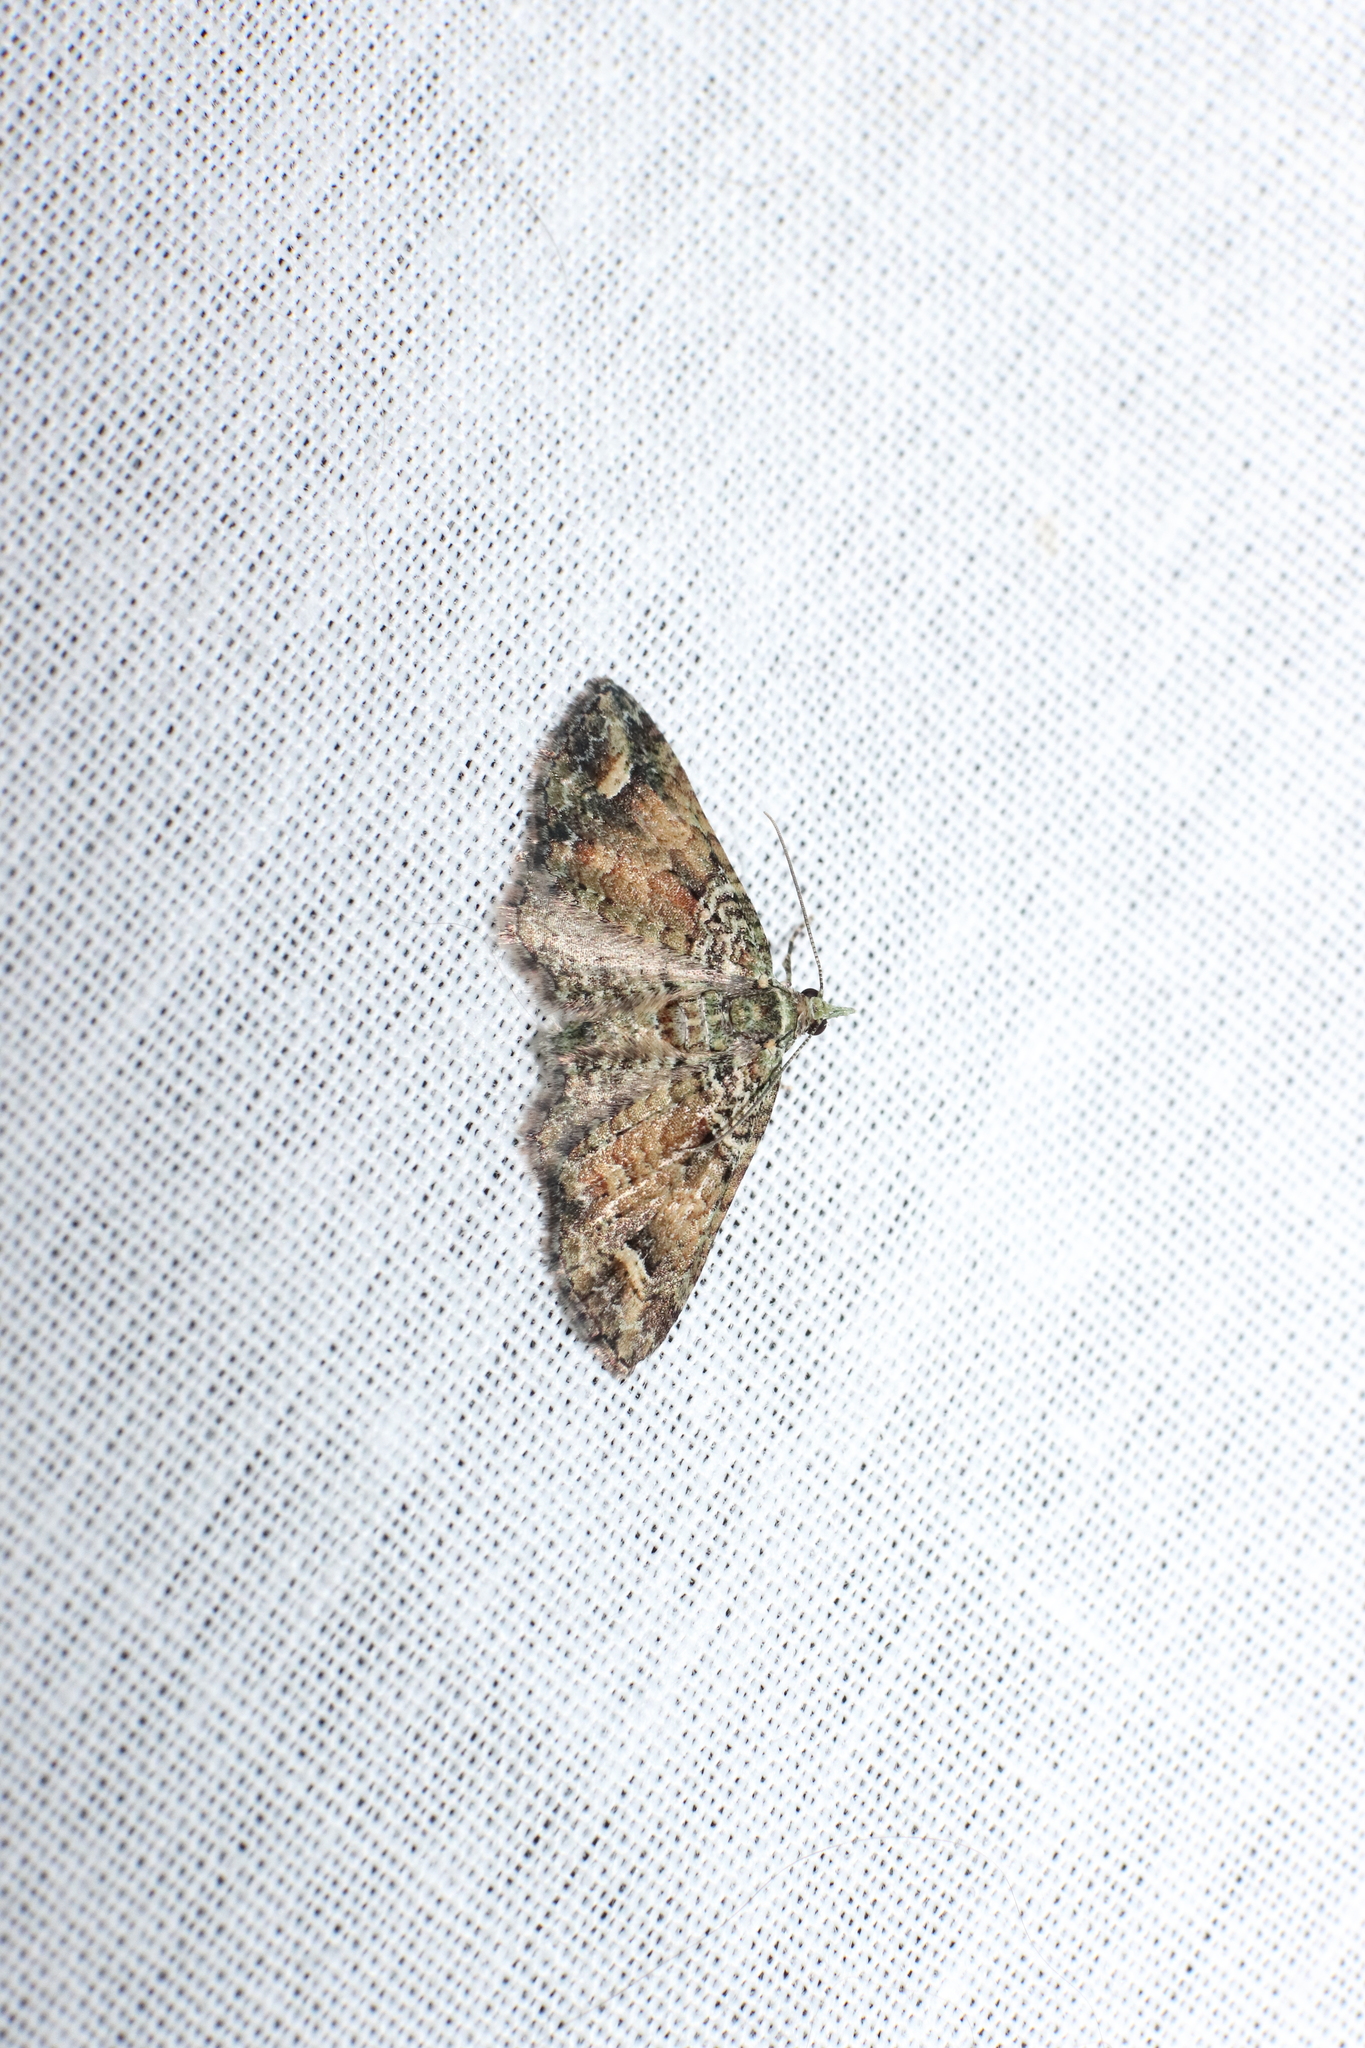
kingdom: Animalia
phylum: Arthropoda
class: Insecta
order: Lepidoptera
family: Geometridae
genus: Idaea
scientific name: Idaea mutanda
